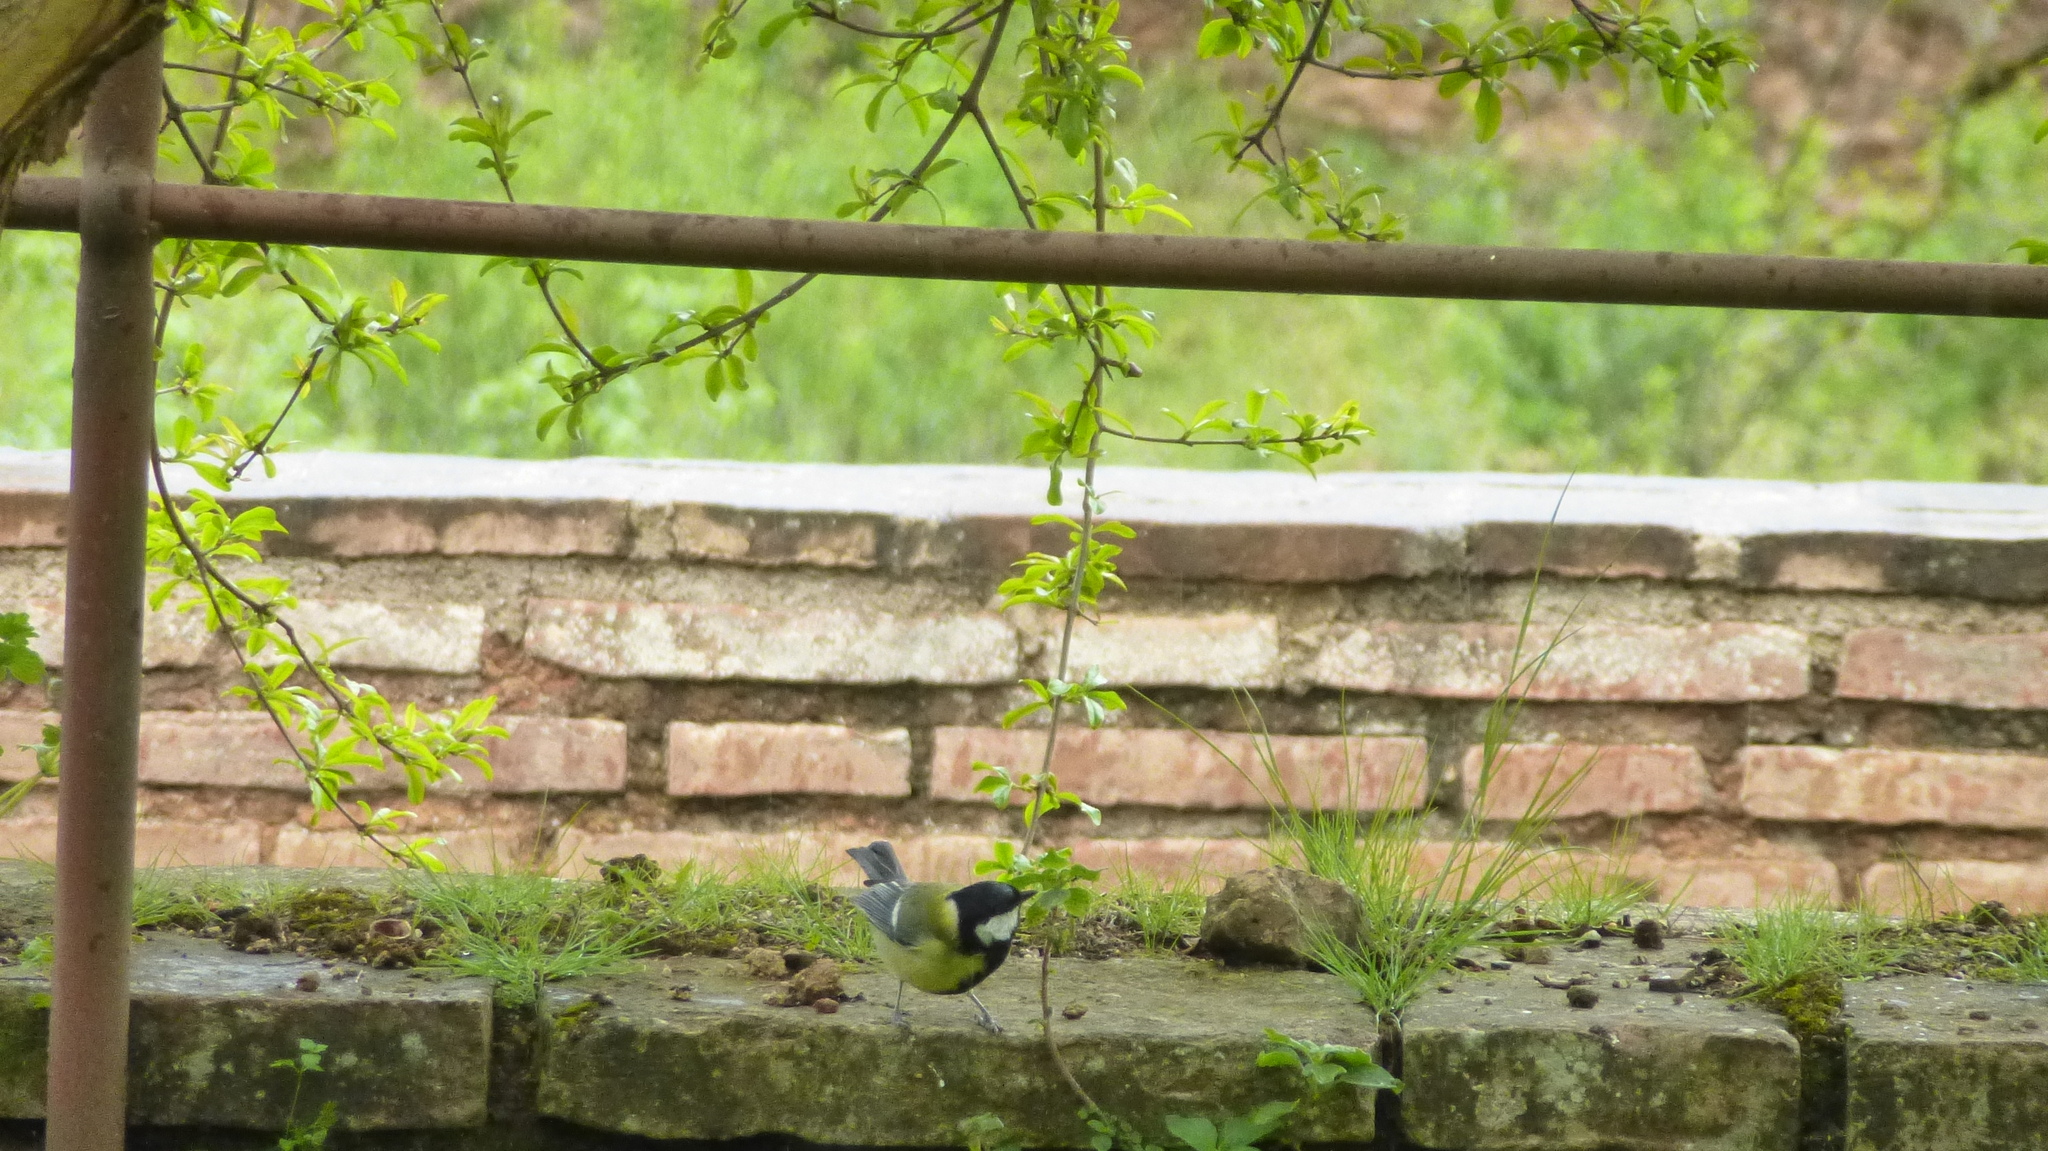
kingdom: Animalia
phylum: Chordata
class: Aves
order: Passeriformes
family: Paridae
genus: Parus
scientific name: Parus major
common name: Great tit
